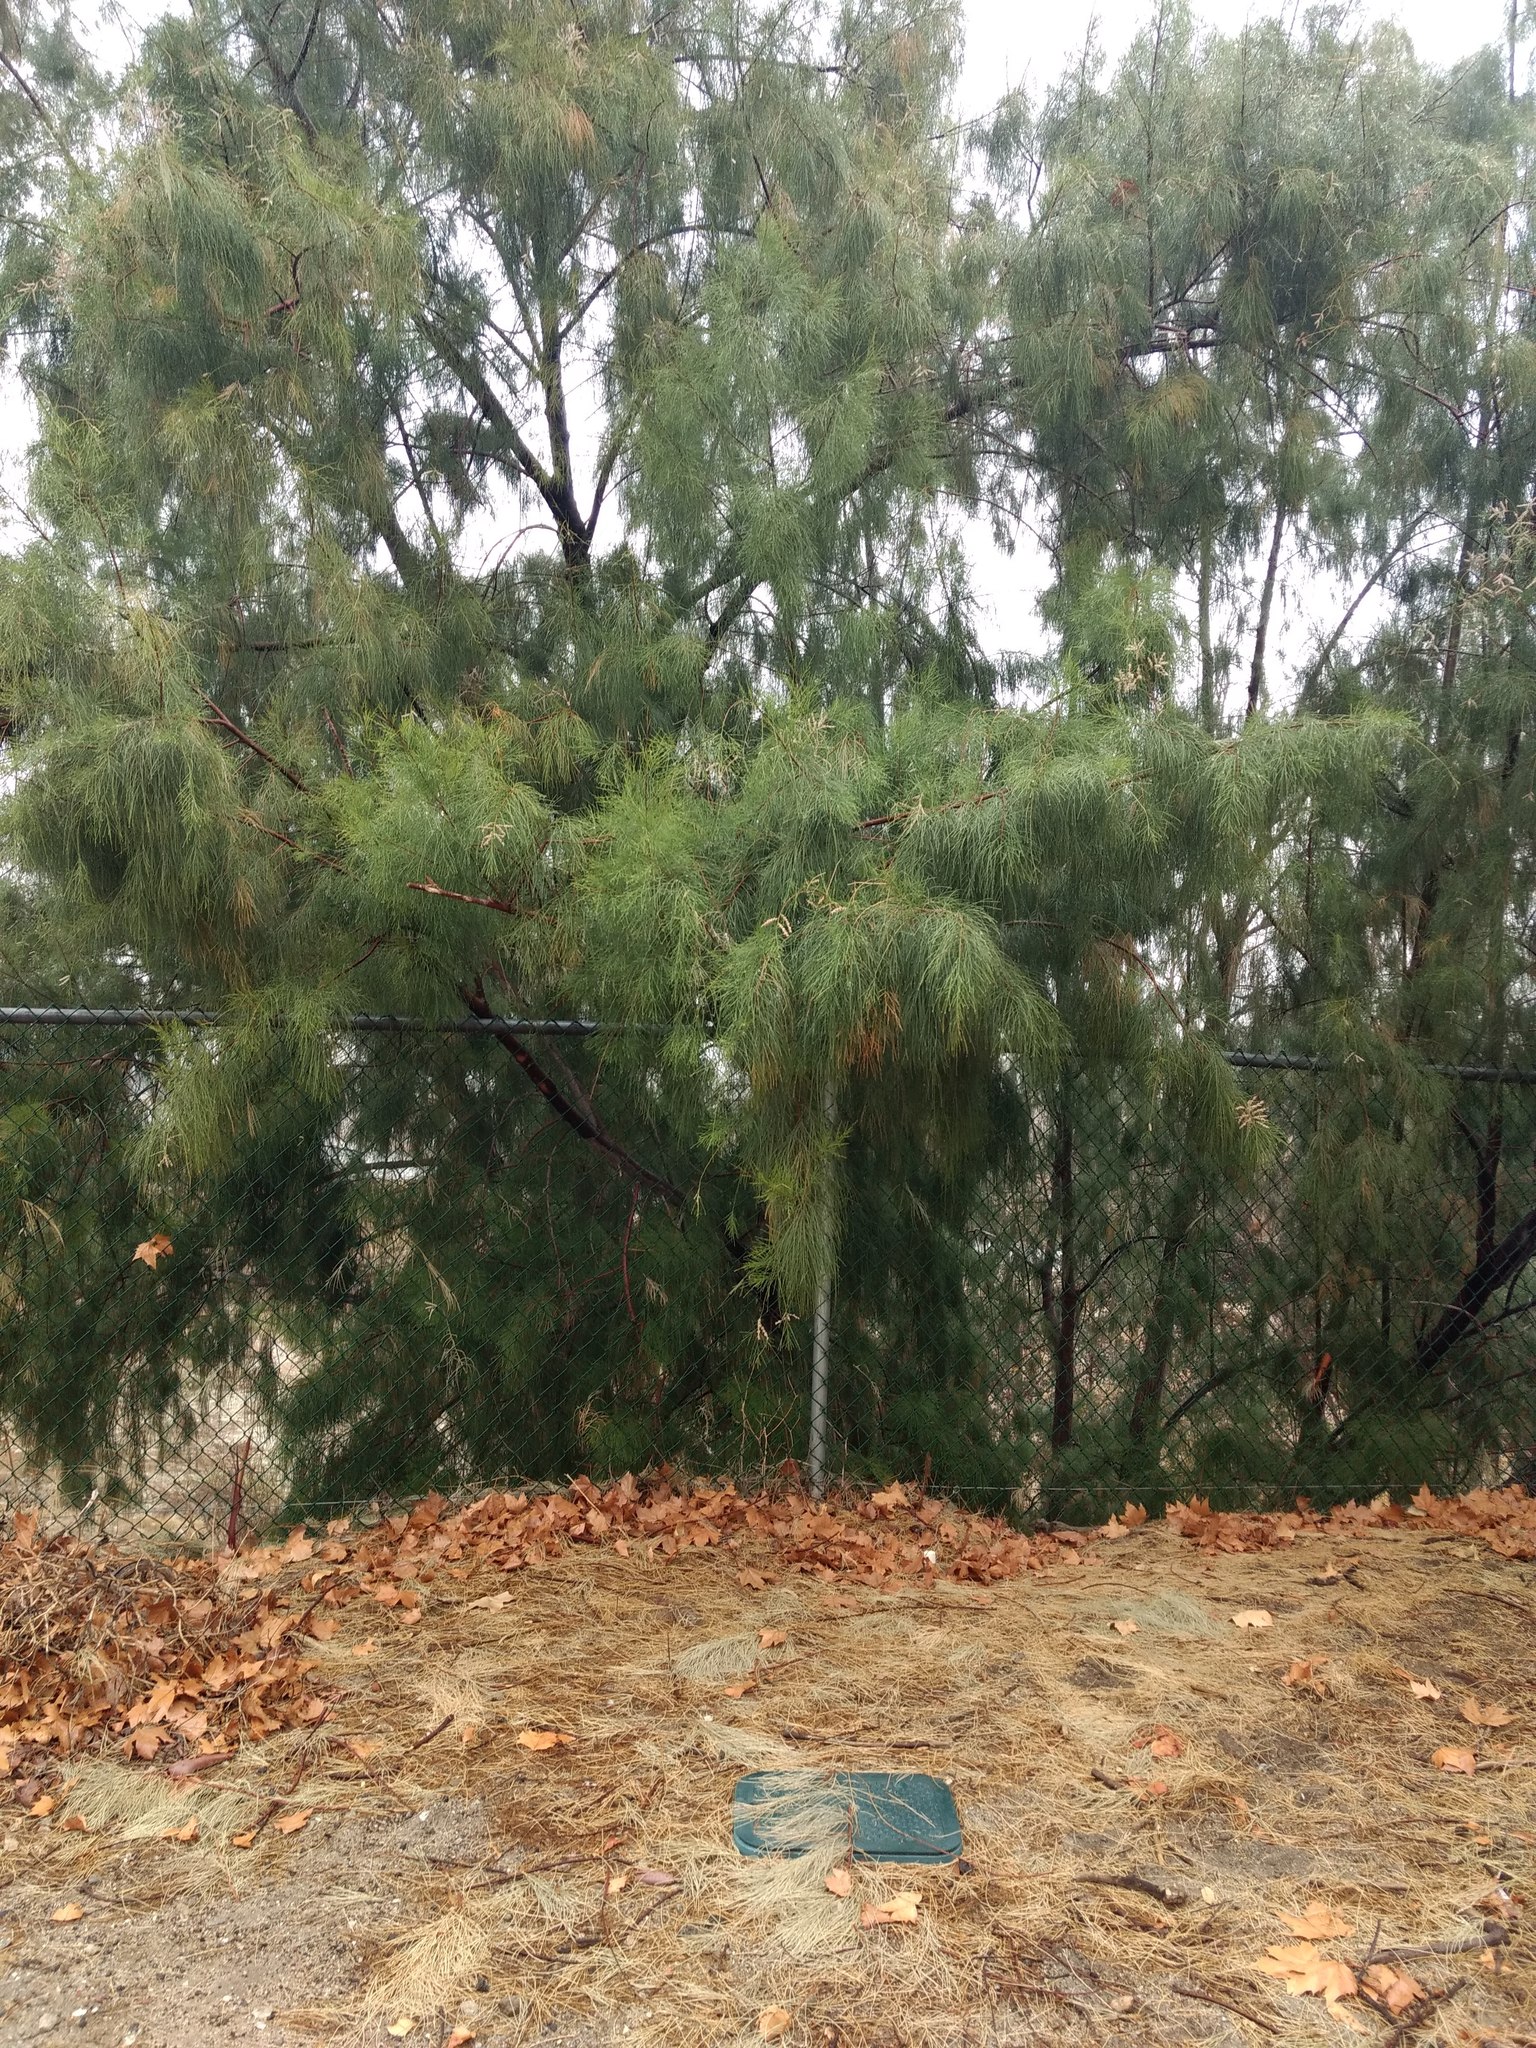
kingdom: Plantae
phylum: Tracheophyta
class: Magnoliopsida
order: Caryophyllales
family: Tamaricaceae
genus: Tamarix
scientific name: Tamarix aphylla
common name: Athel tamarisk
